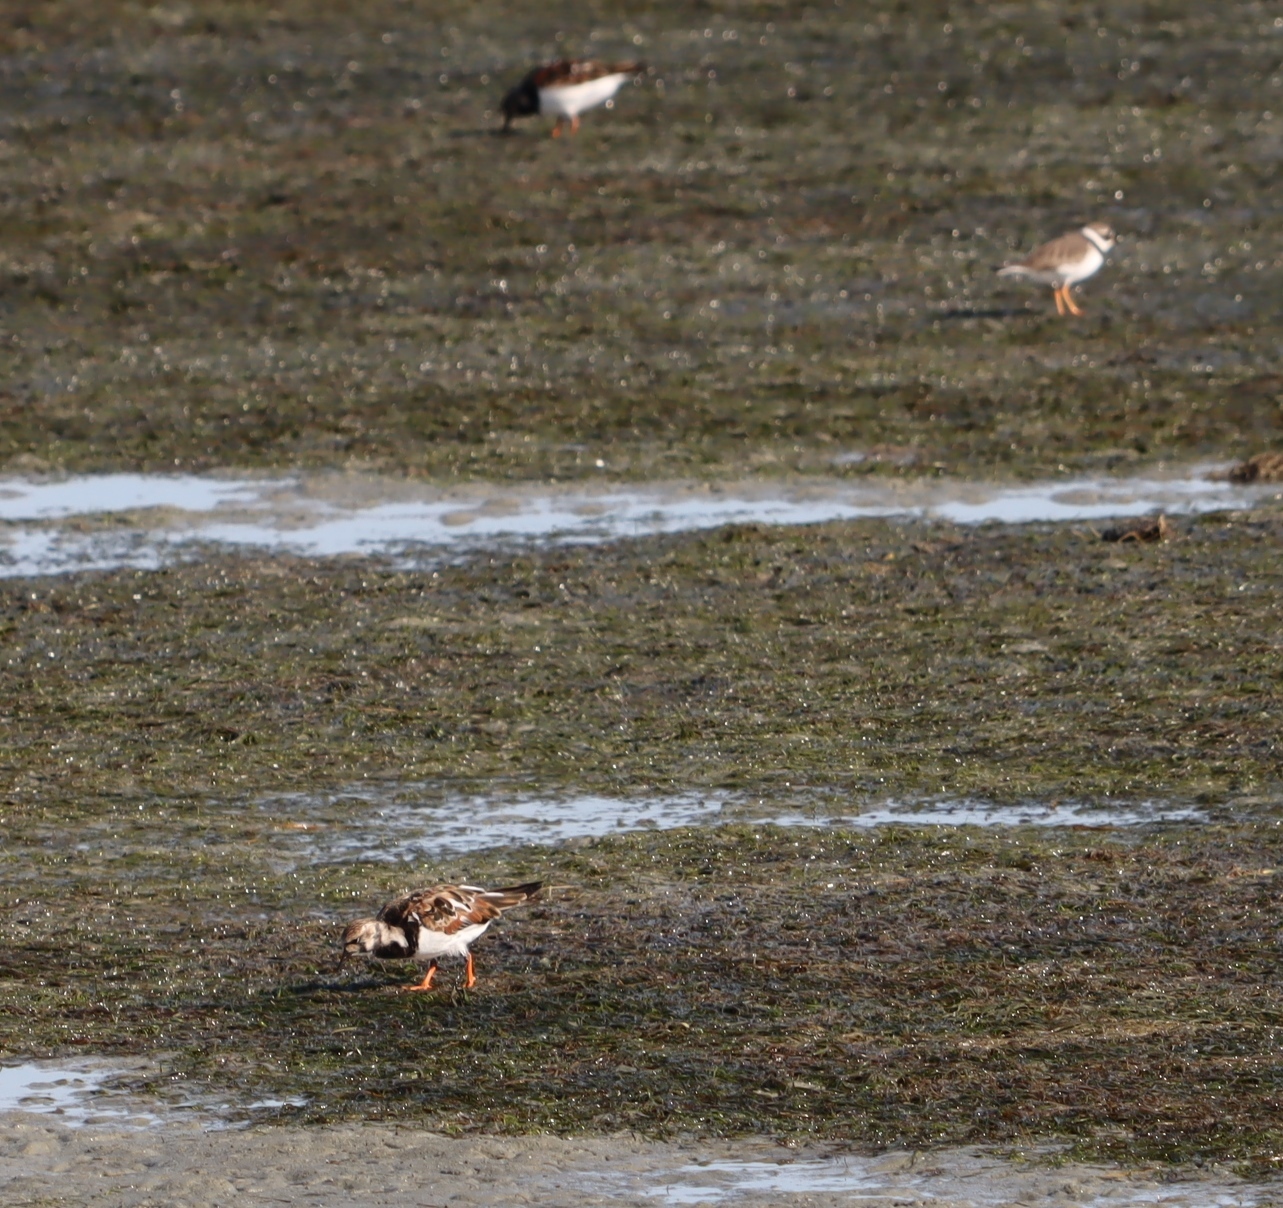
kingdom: Animalia
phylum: Chordata
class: Aves
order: Charadriiformes
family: Scolopacidae
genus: Arenaria
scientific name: Arenaria interpres
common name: Ruddy turnstone
